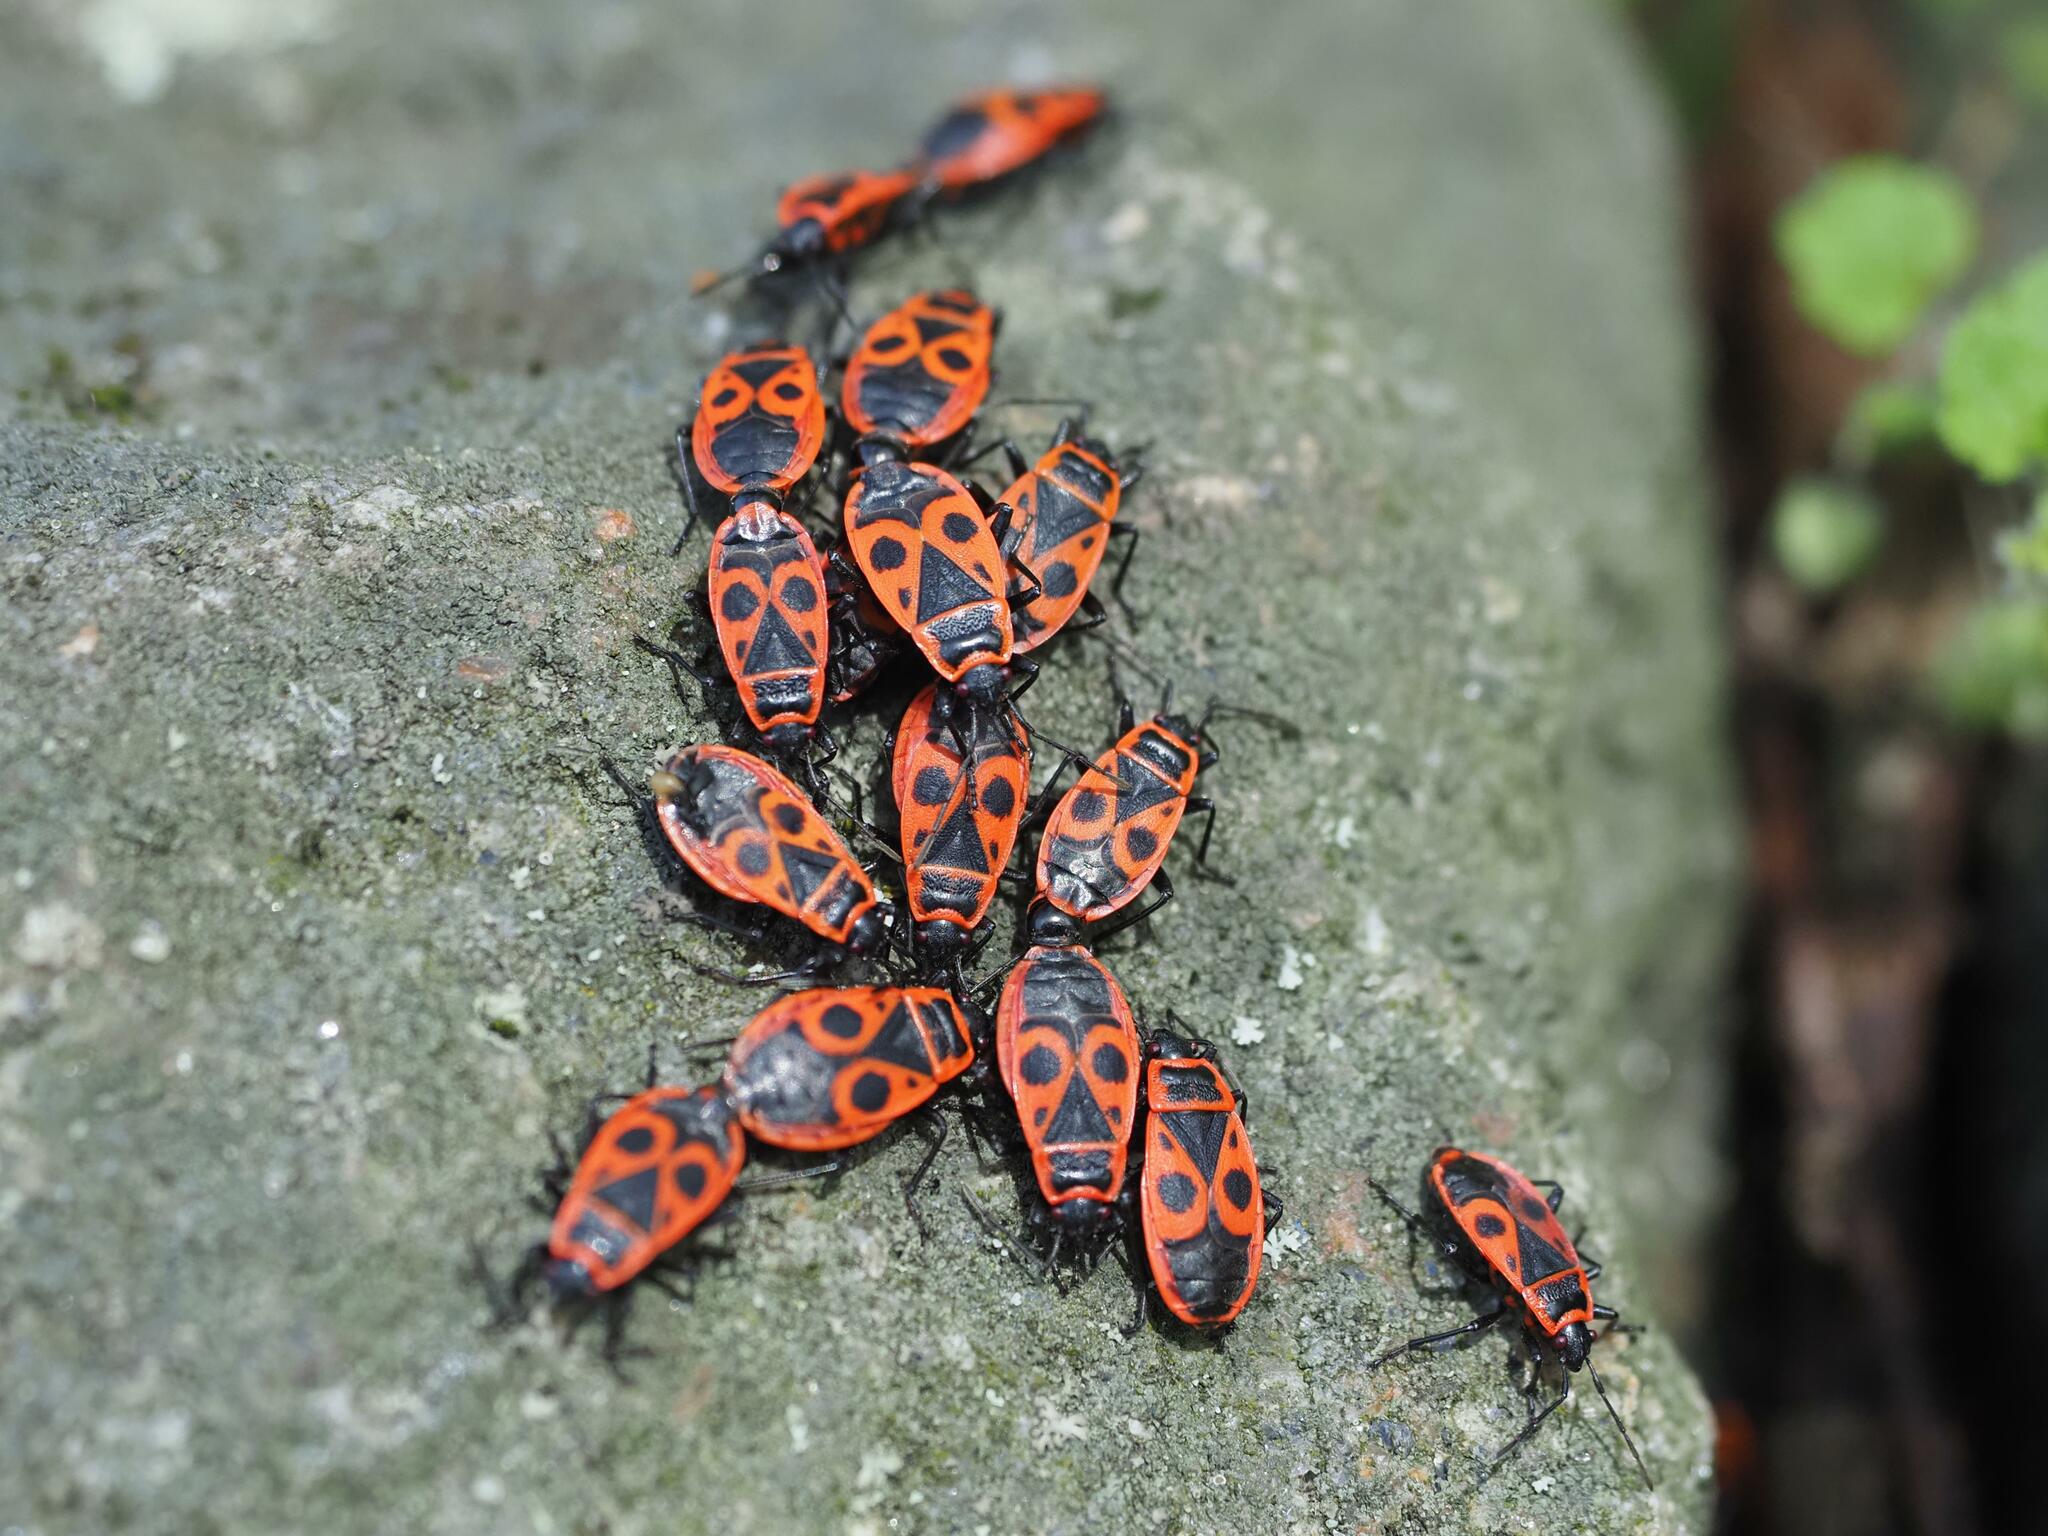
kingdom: Animalia
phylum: Arthropoda
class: Insecta
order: Hemiptera
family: Pyrrhocoridae
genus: Pyrrhocoris
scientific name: Pyrrhocoris apterus
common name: Firebug
